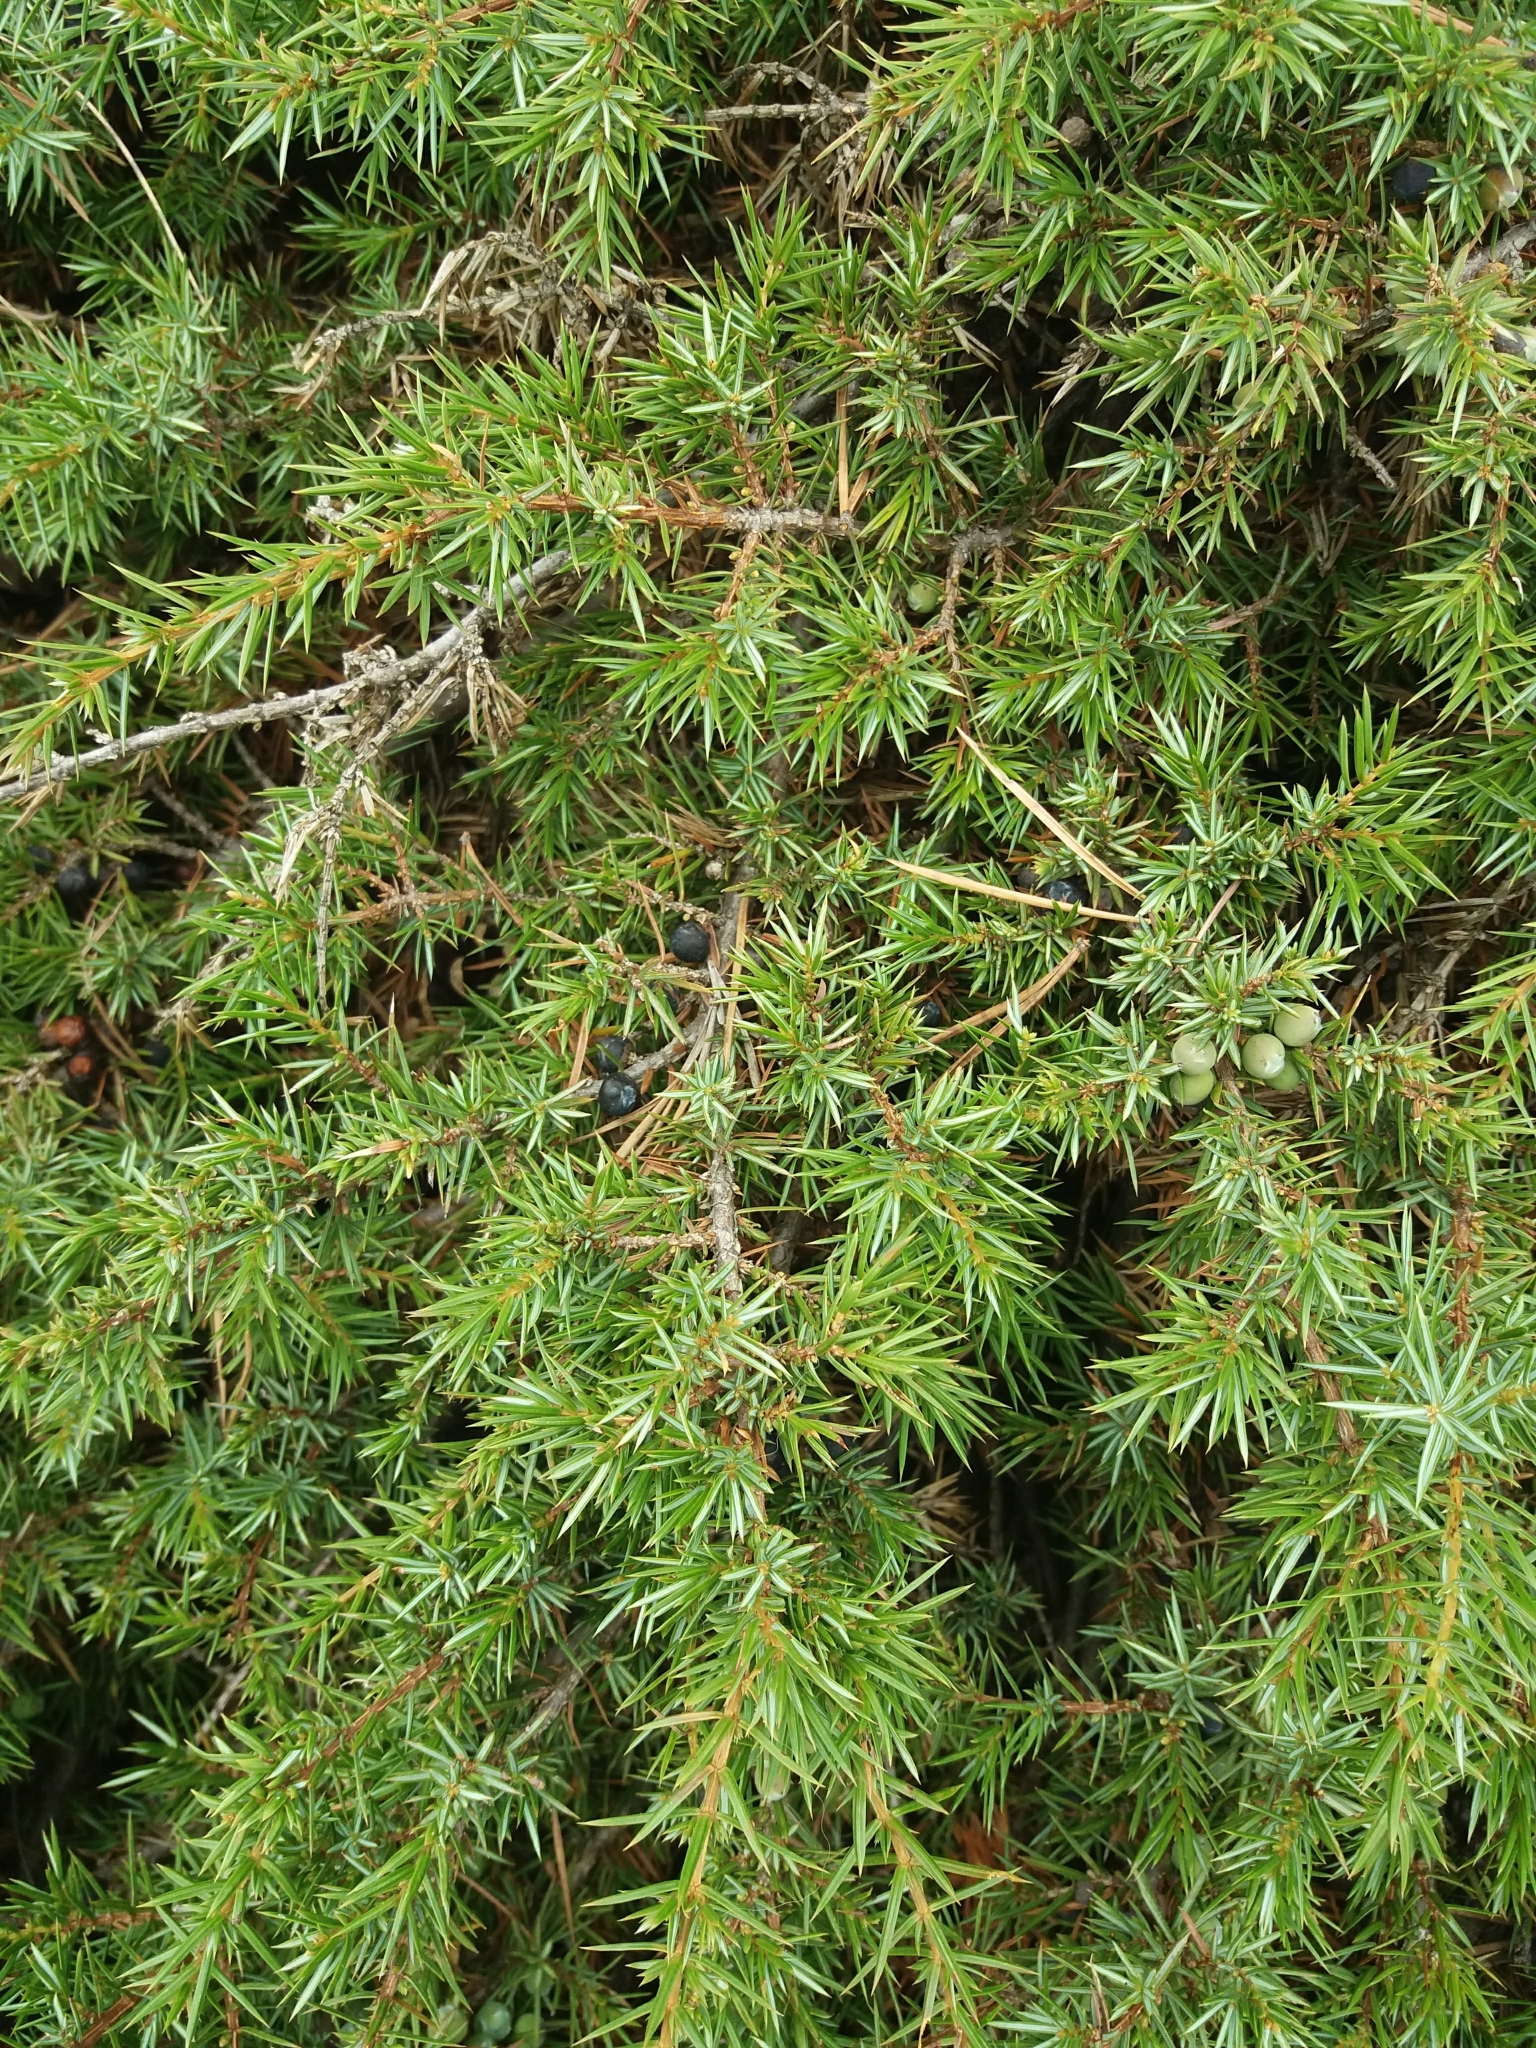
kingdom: Plantae
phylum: Tracheophyta
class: Pinopsida
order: Pinales
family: Cupressaceae
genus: Juniperus
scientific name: Juniperus communis
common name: Common juniper
